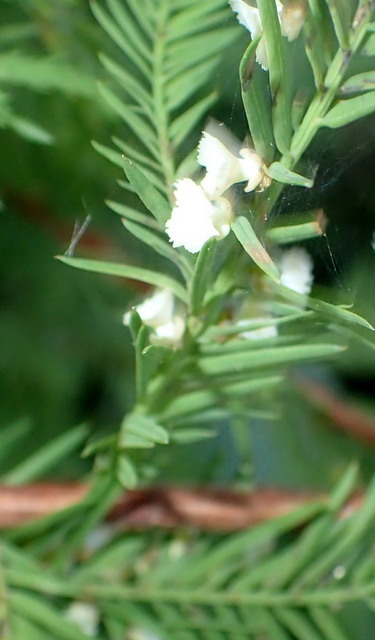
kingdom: Animalia
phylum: Arthropoda
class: Insecta
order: Diptera
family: Cecidomyiidae
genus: Taxodiomyia
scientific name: Taxodiomyia cupressi
